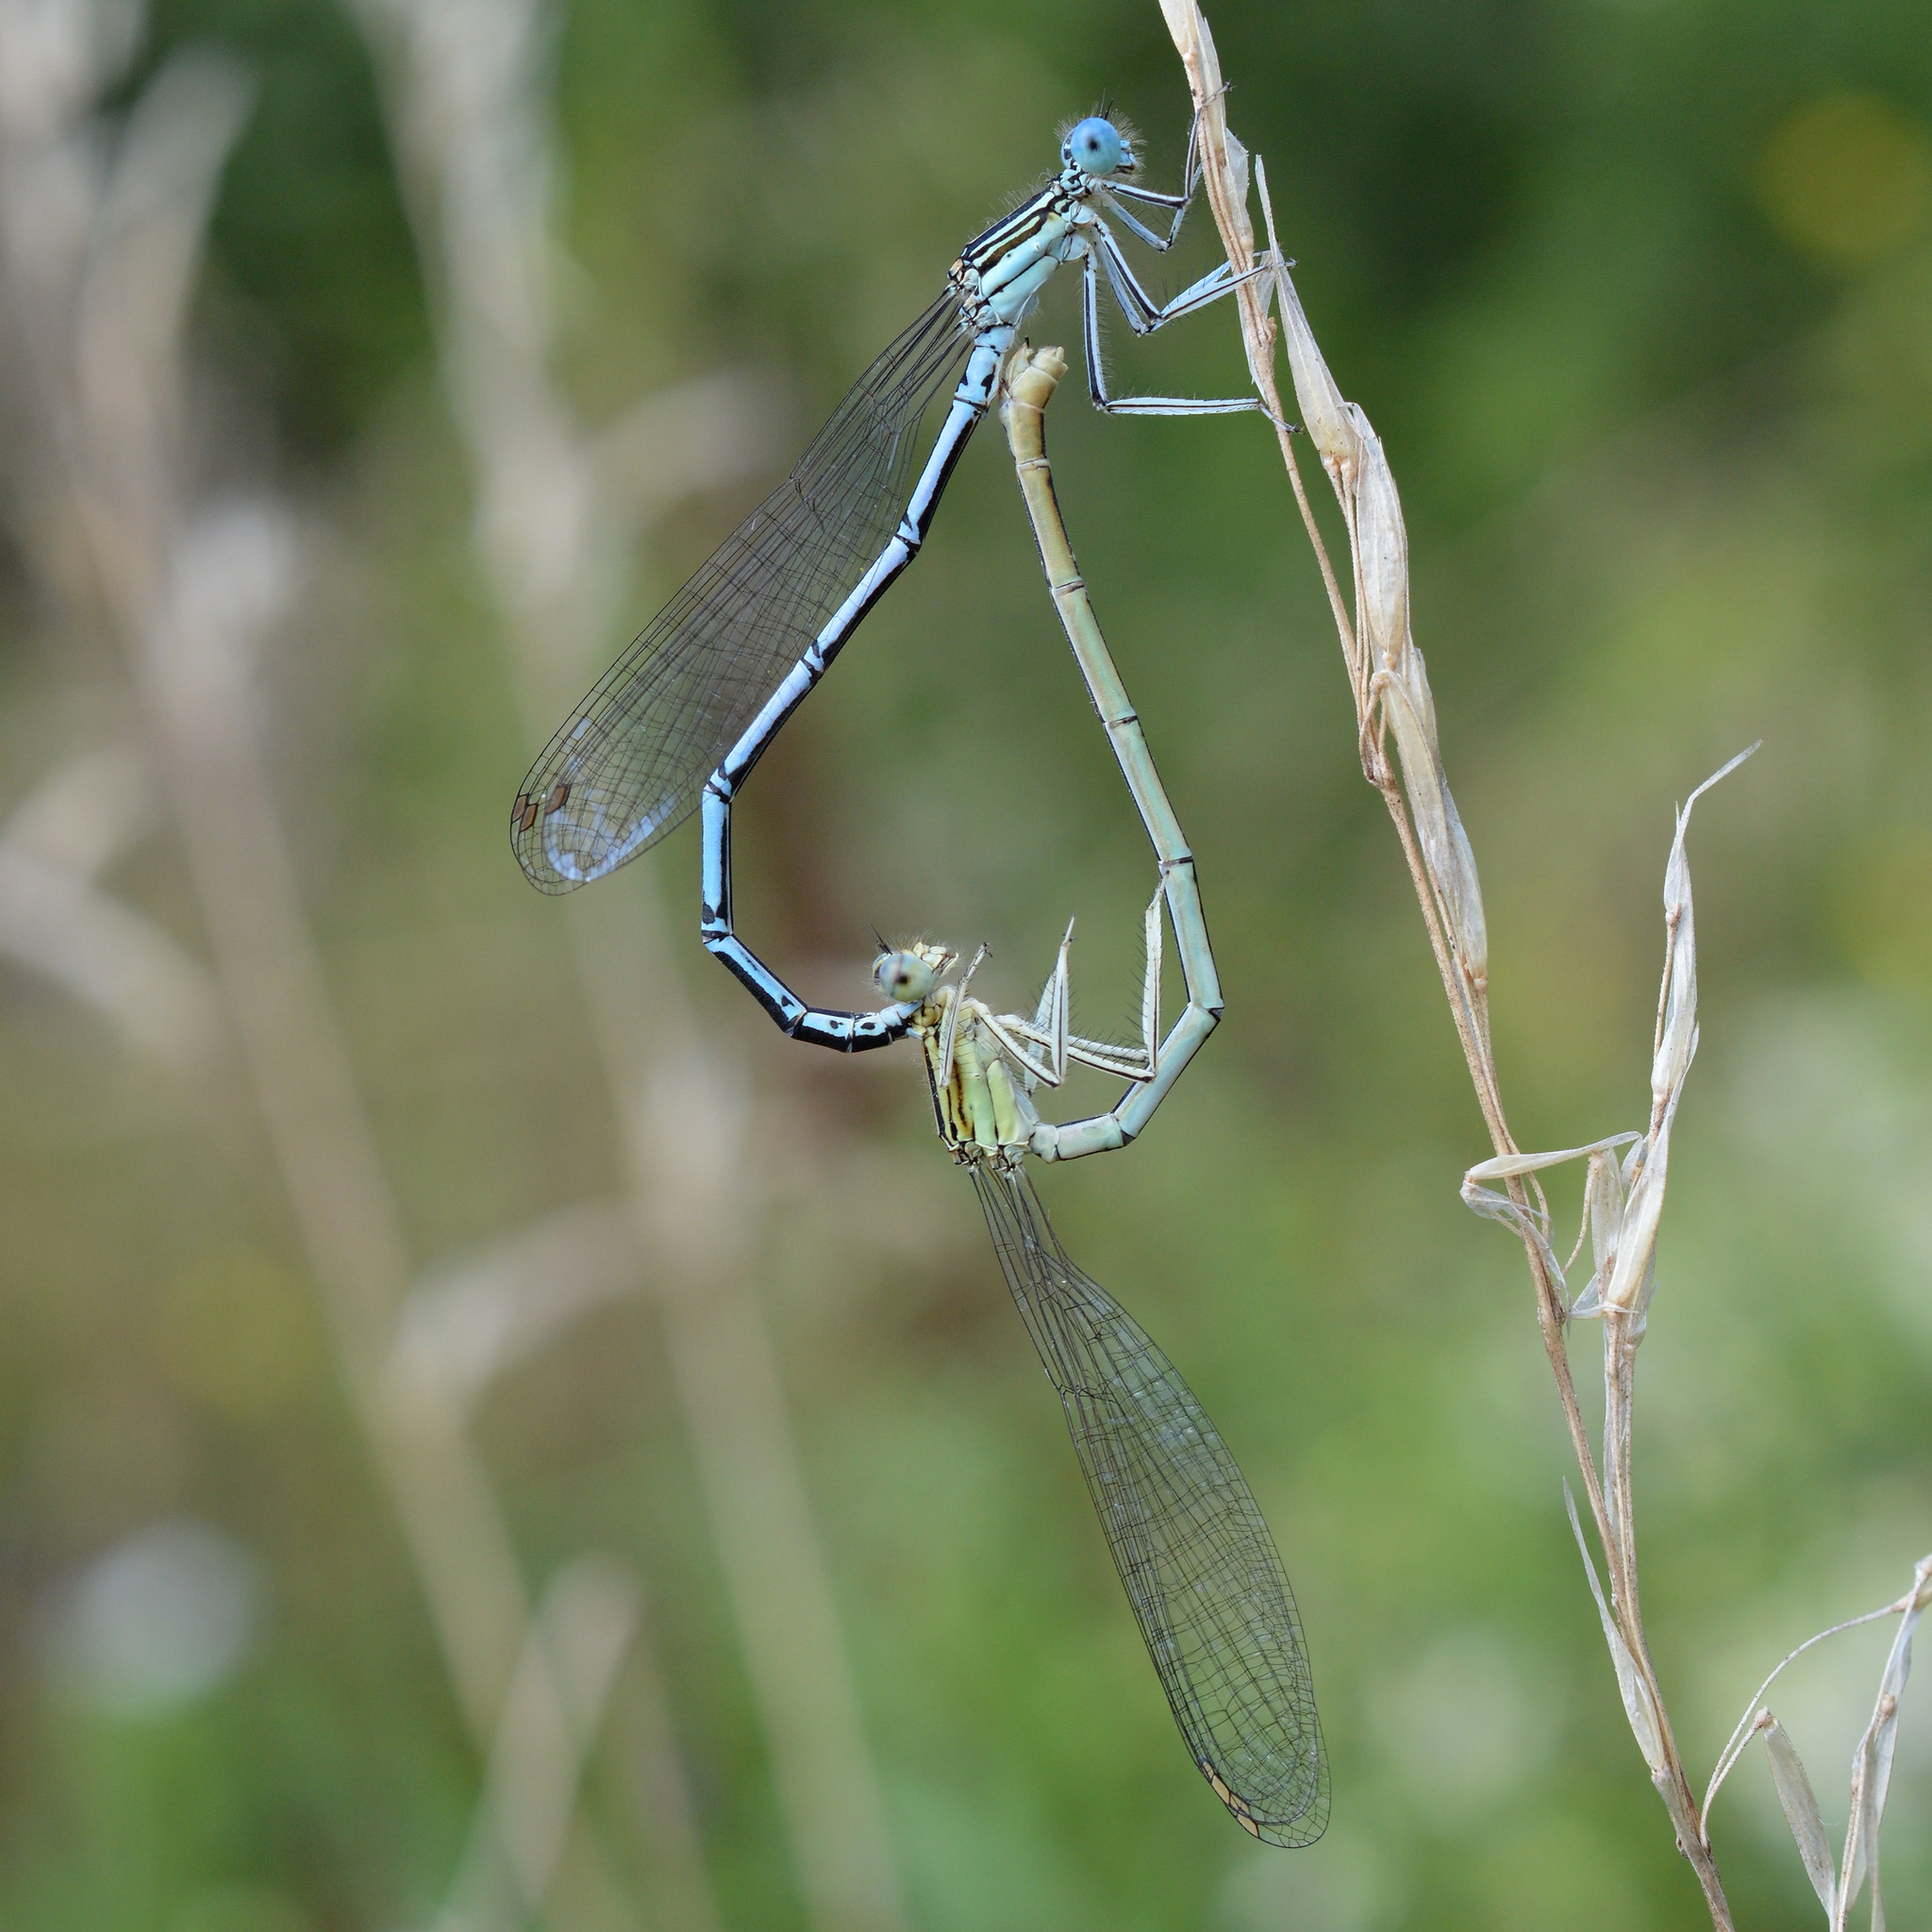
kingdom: Animalia
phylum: Arthropoda
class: Insecta
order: Odonata
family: Platycnemididae
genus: Platycnemis
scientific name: Platycnemis pennipes
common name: White-legged damselfly
